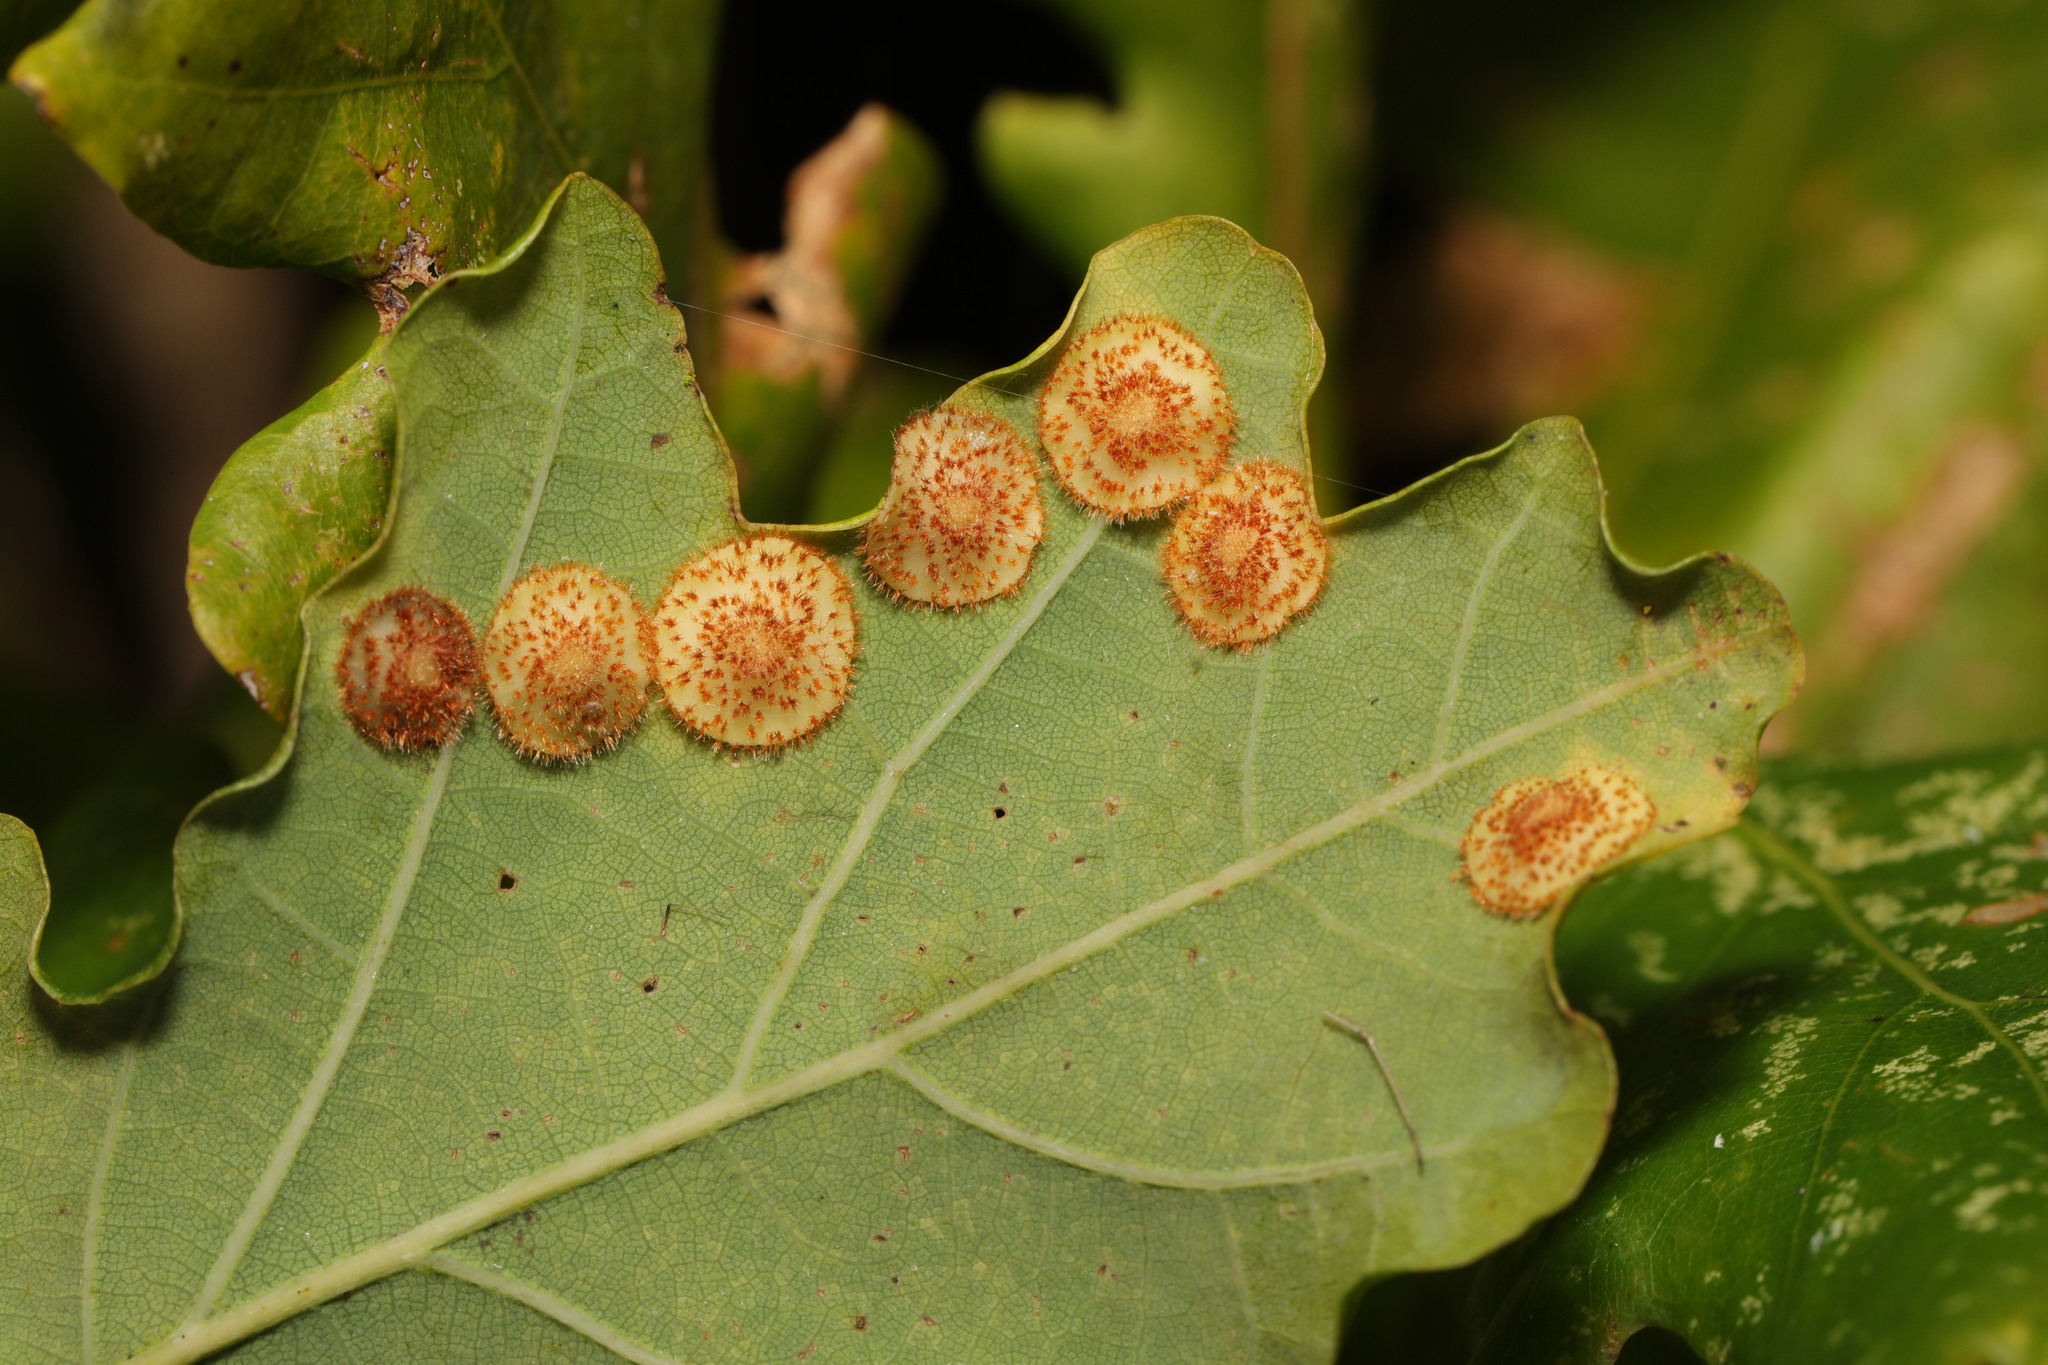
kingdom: Animalia
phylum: Arthropoda
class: Insecta
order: Hymenoptera
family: Cynipidae
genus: Neuroterus
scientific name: Neuroterus quercusbaccarum
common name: Common spangle gall
